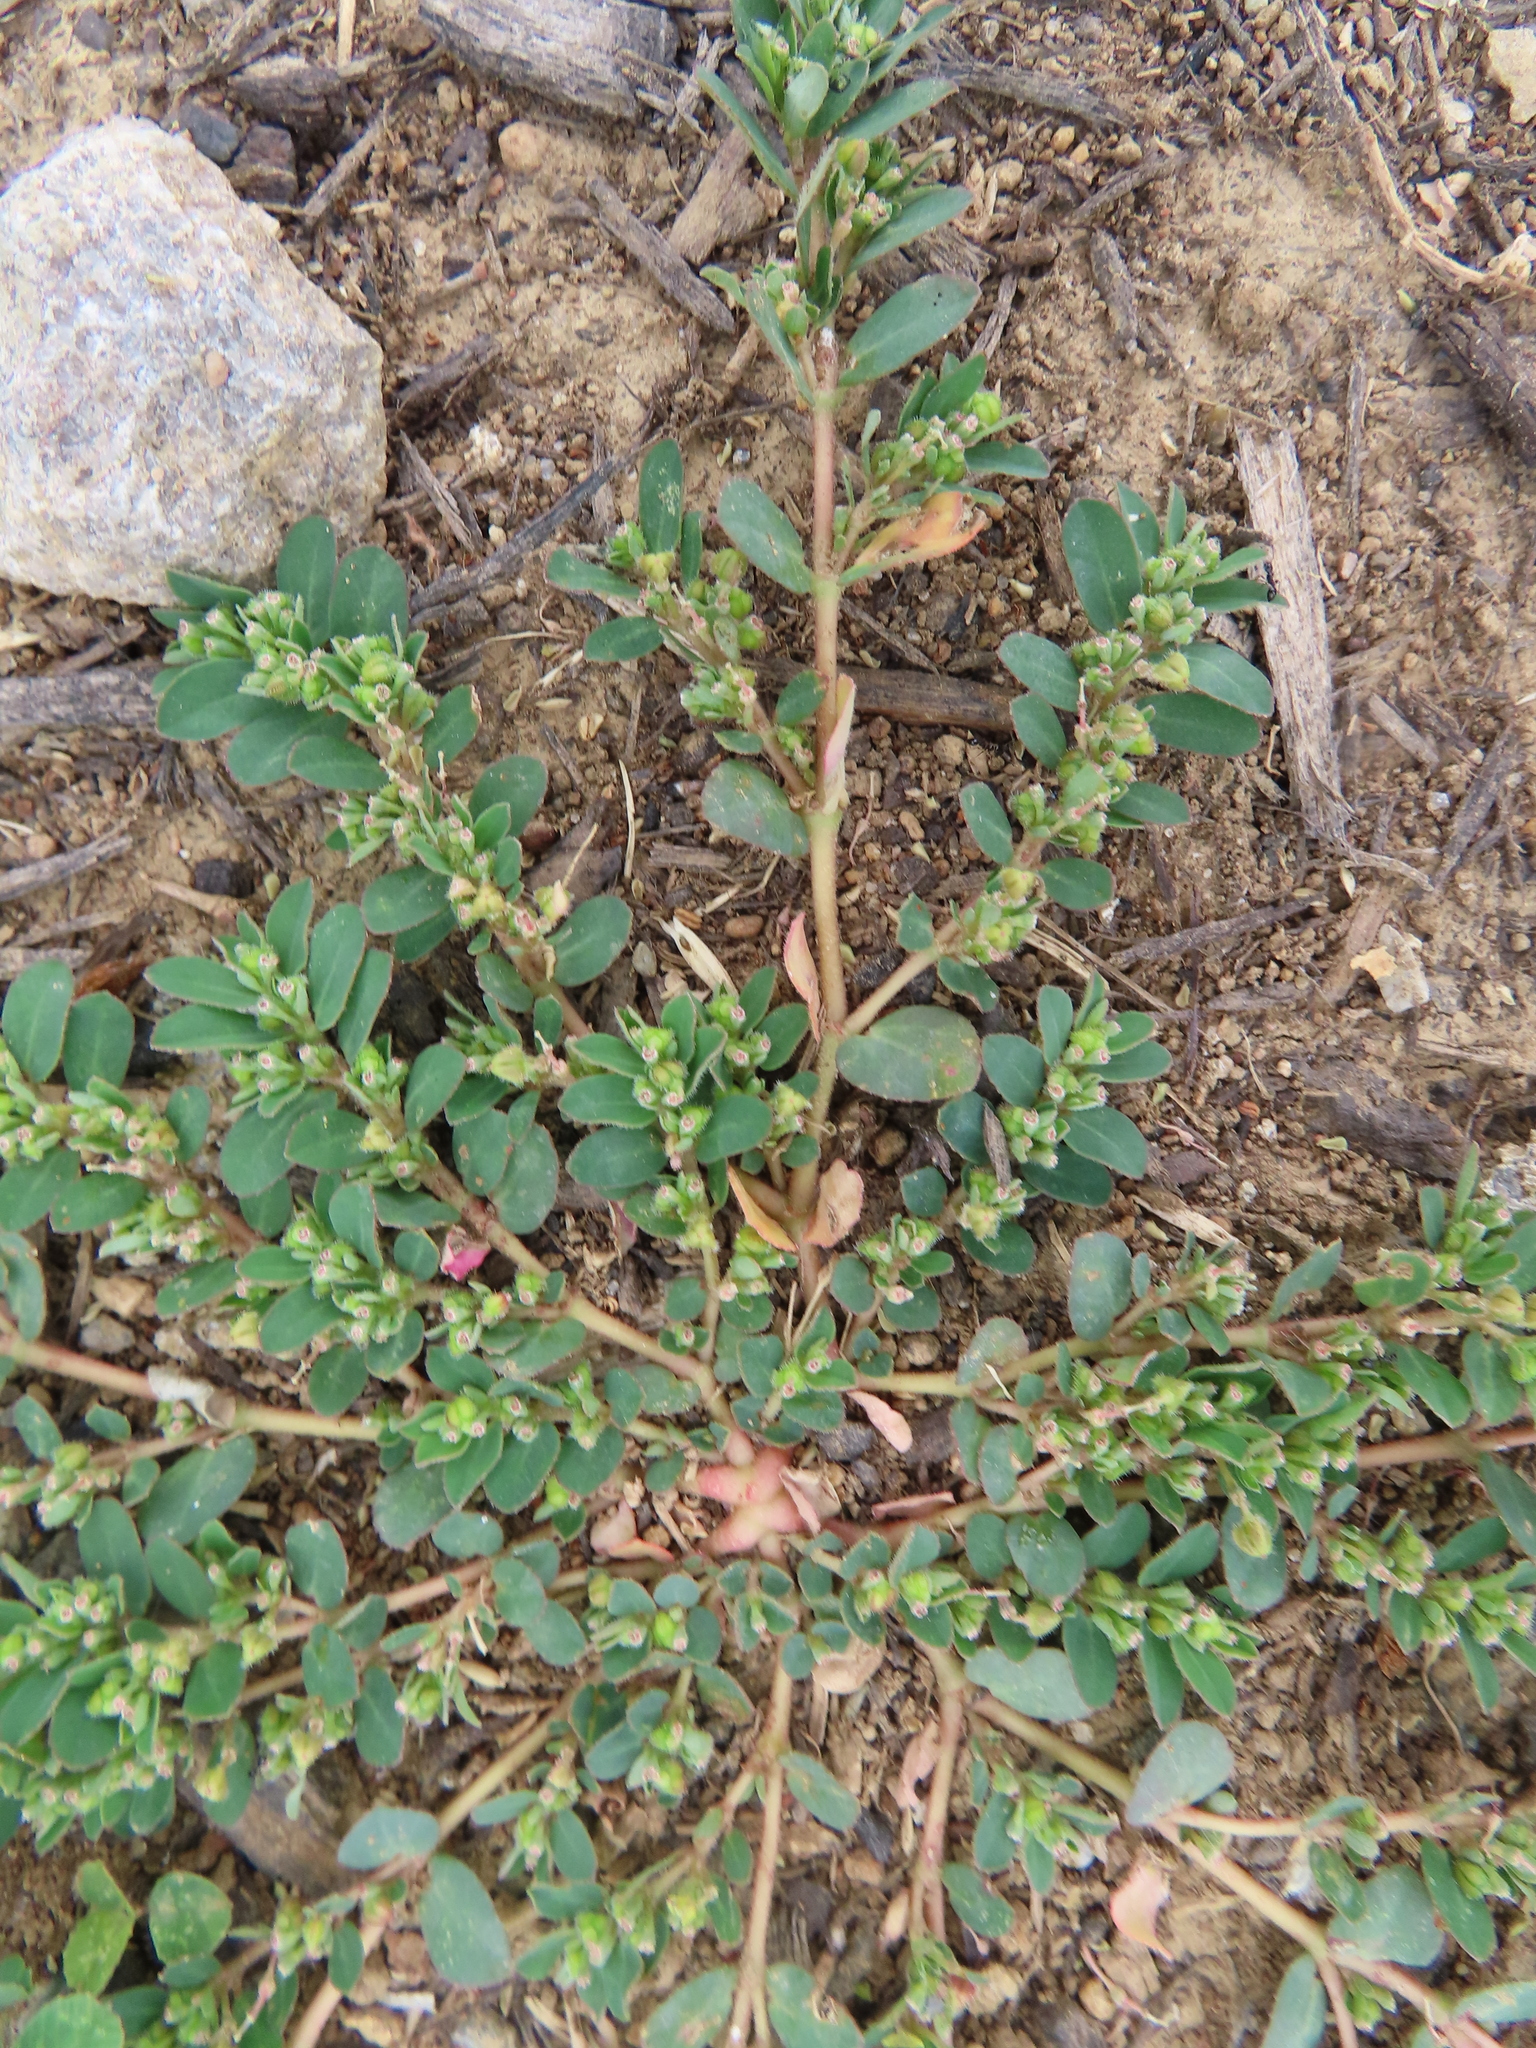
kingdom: Plantae
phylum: Tracheophyta
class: Magnoliopsida
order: Malpighiales
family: Euphorbiaceae
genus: Euphorbia
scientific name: Euphorbia prostrata
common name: Prostrate sandmat
